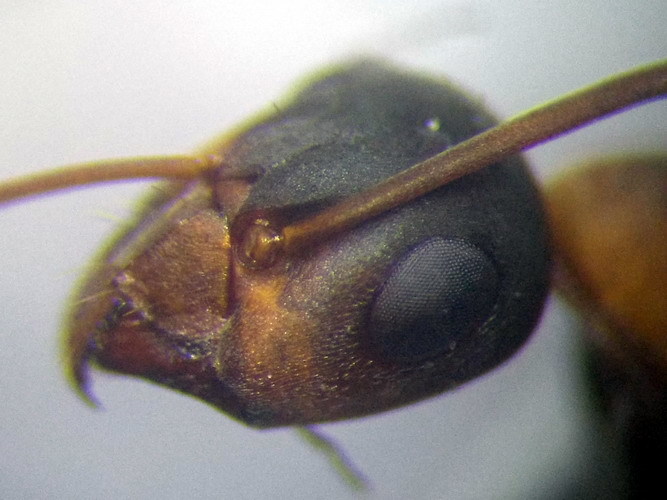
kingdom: Animalia
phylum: Arthropoda
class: Insecta
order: Hymenoptera
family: Formicidae
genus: Formica
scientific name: Formica rufibarbis
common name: Red barbed ant
